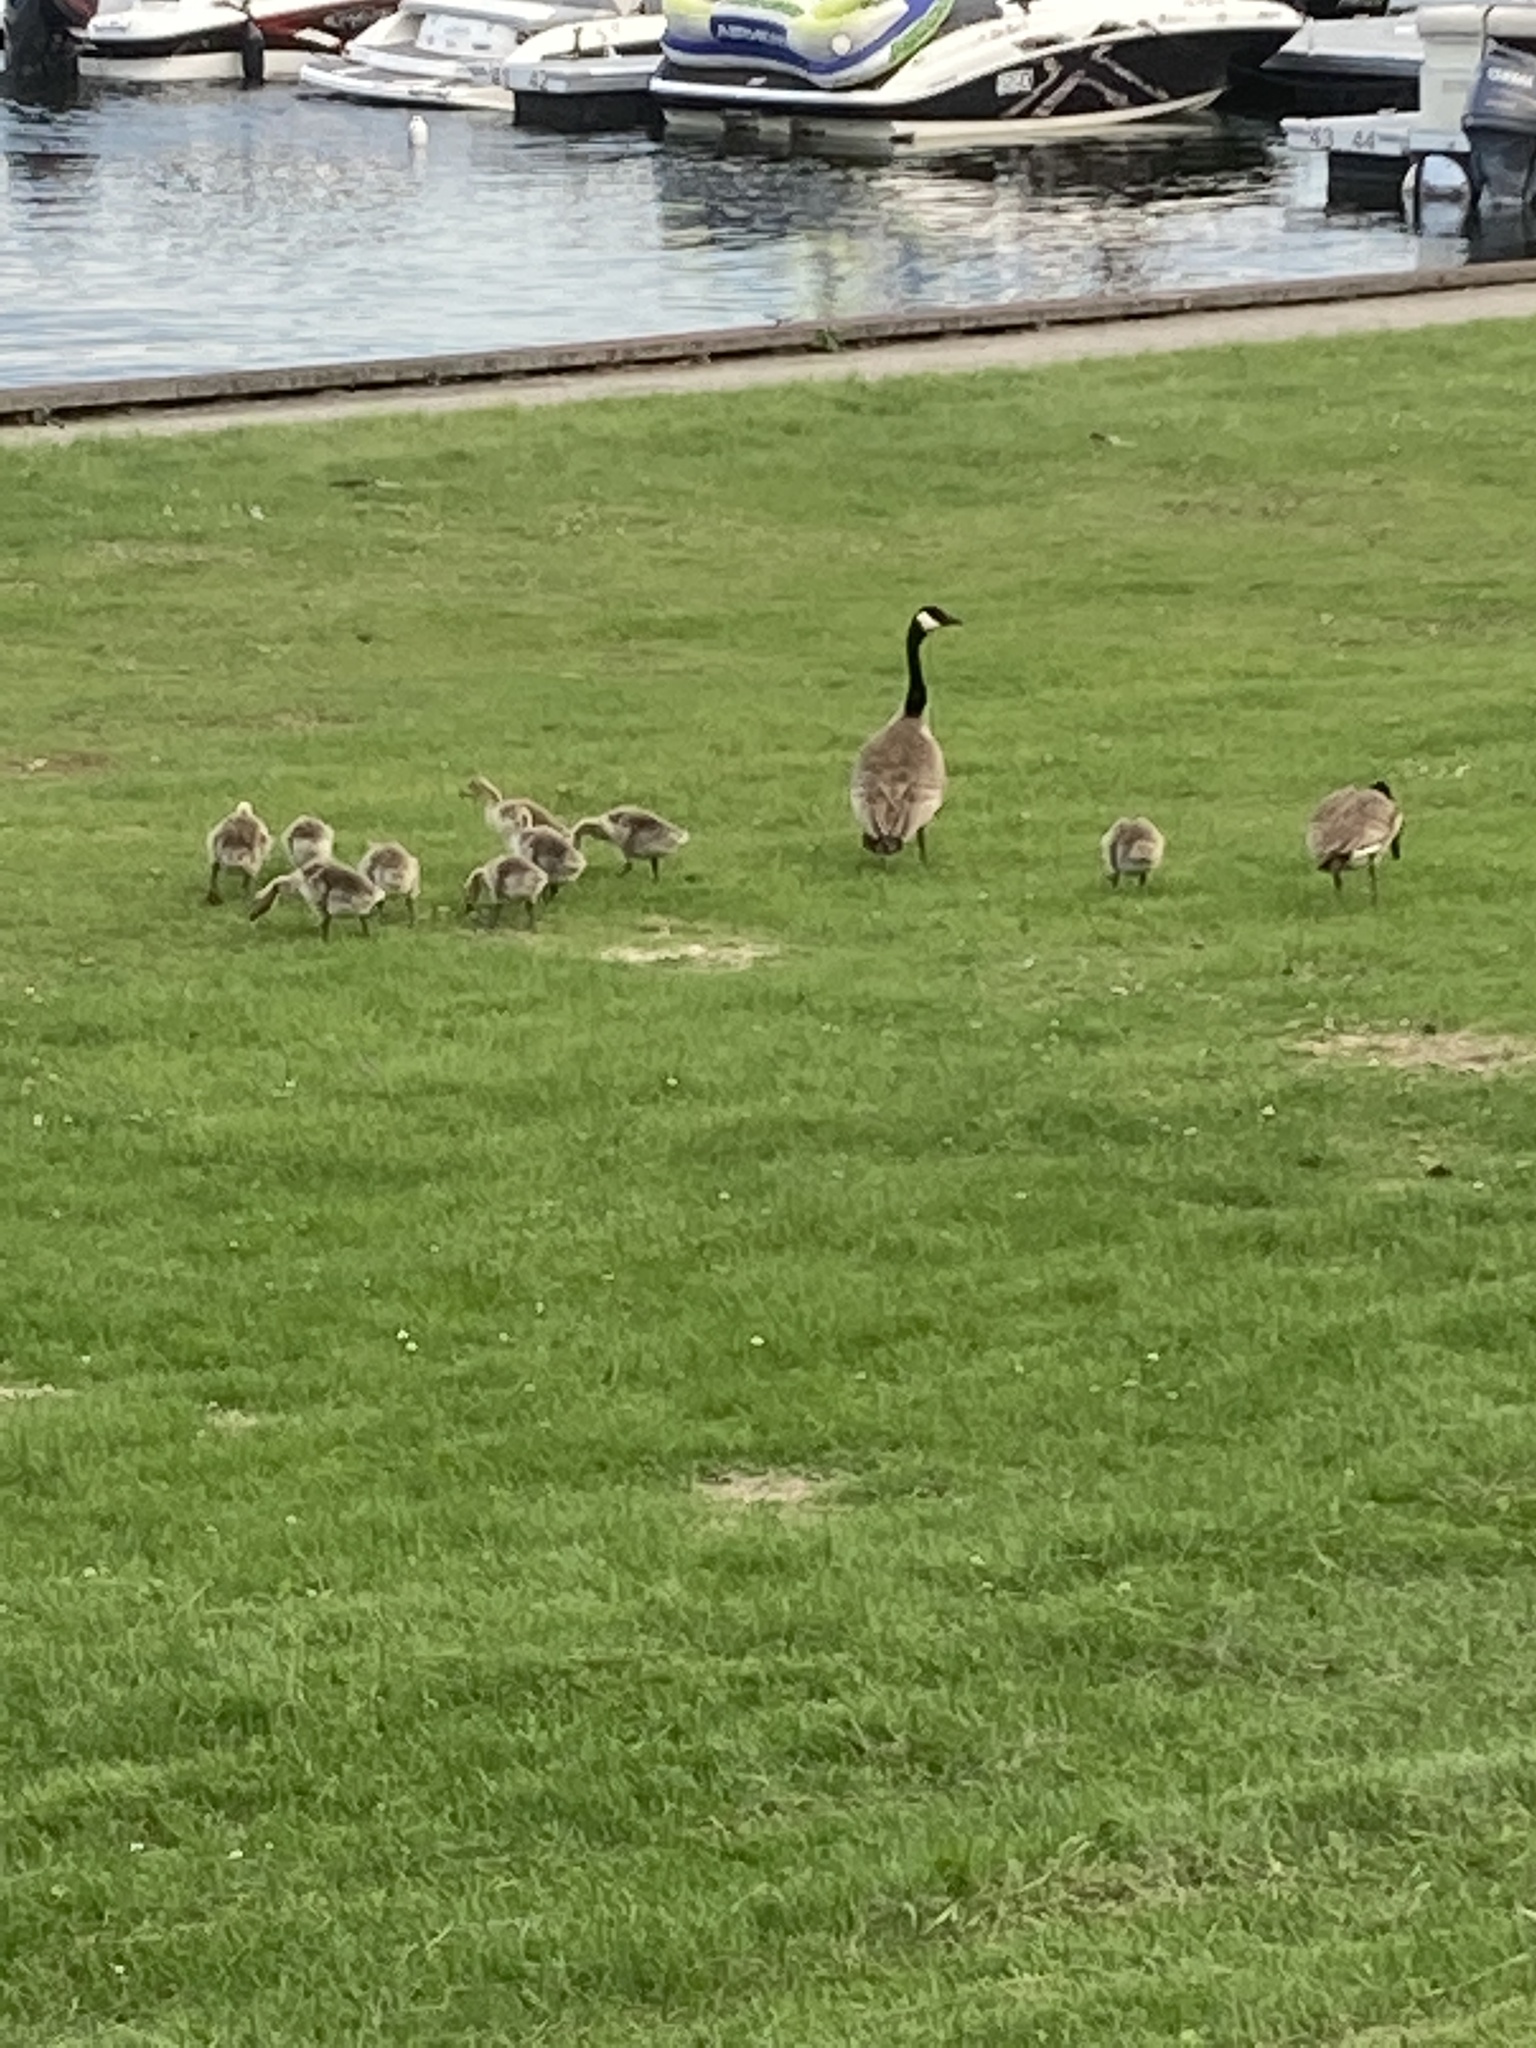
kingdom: Animalia
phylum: Chordata
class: Aves
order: Anseriformes
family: Anatidae
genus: Branta
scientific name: Branta canadensis
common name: Canada goose
